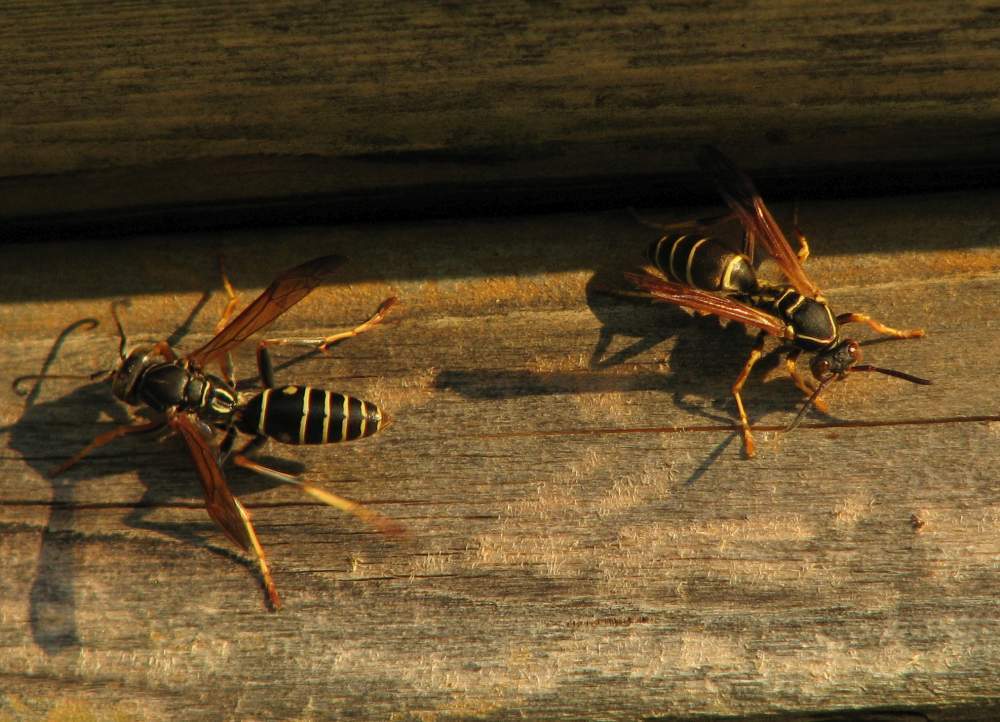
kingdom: Animalia
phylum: Arthropoda
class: Insecta
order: Hymenoptera
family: Eumenidae
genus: Polistes
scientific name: Polistes fuscatus
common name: Dark paper wasp
